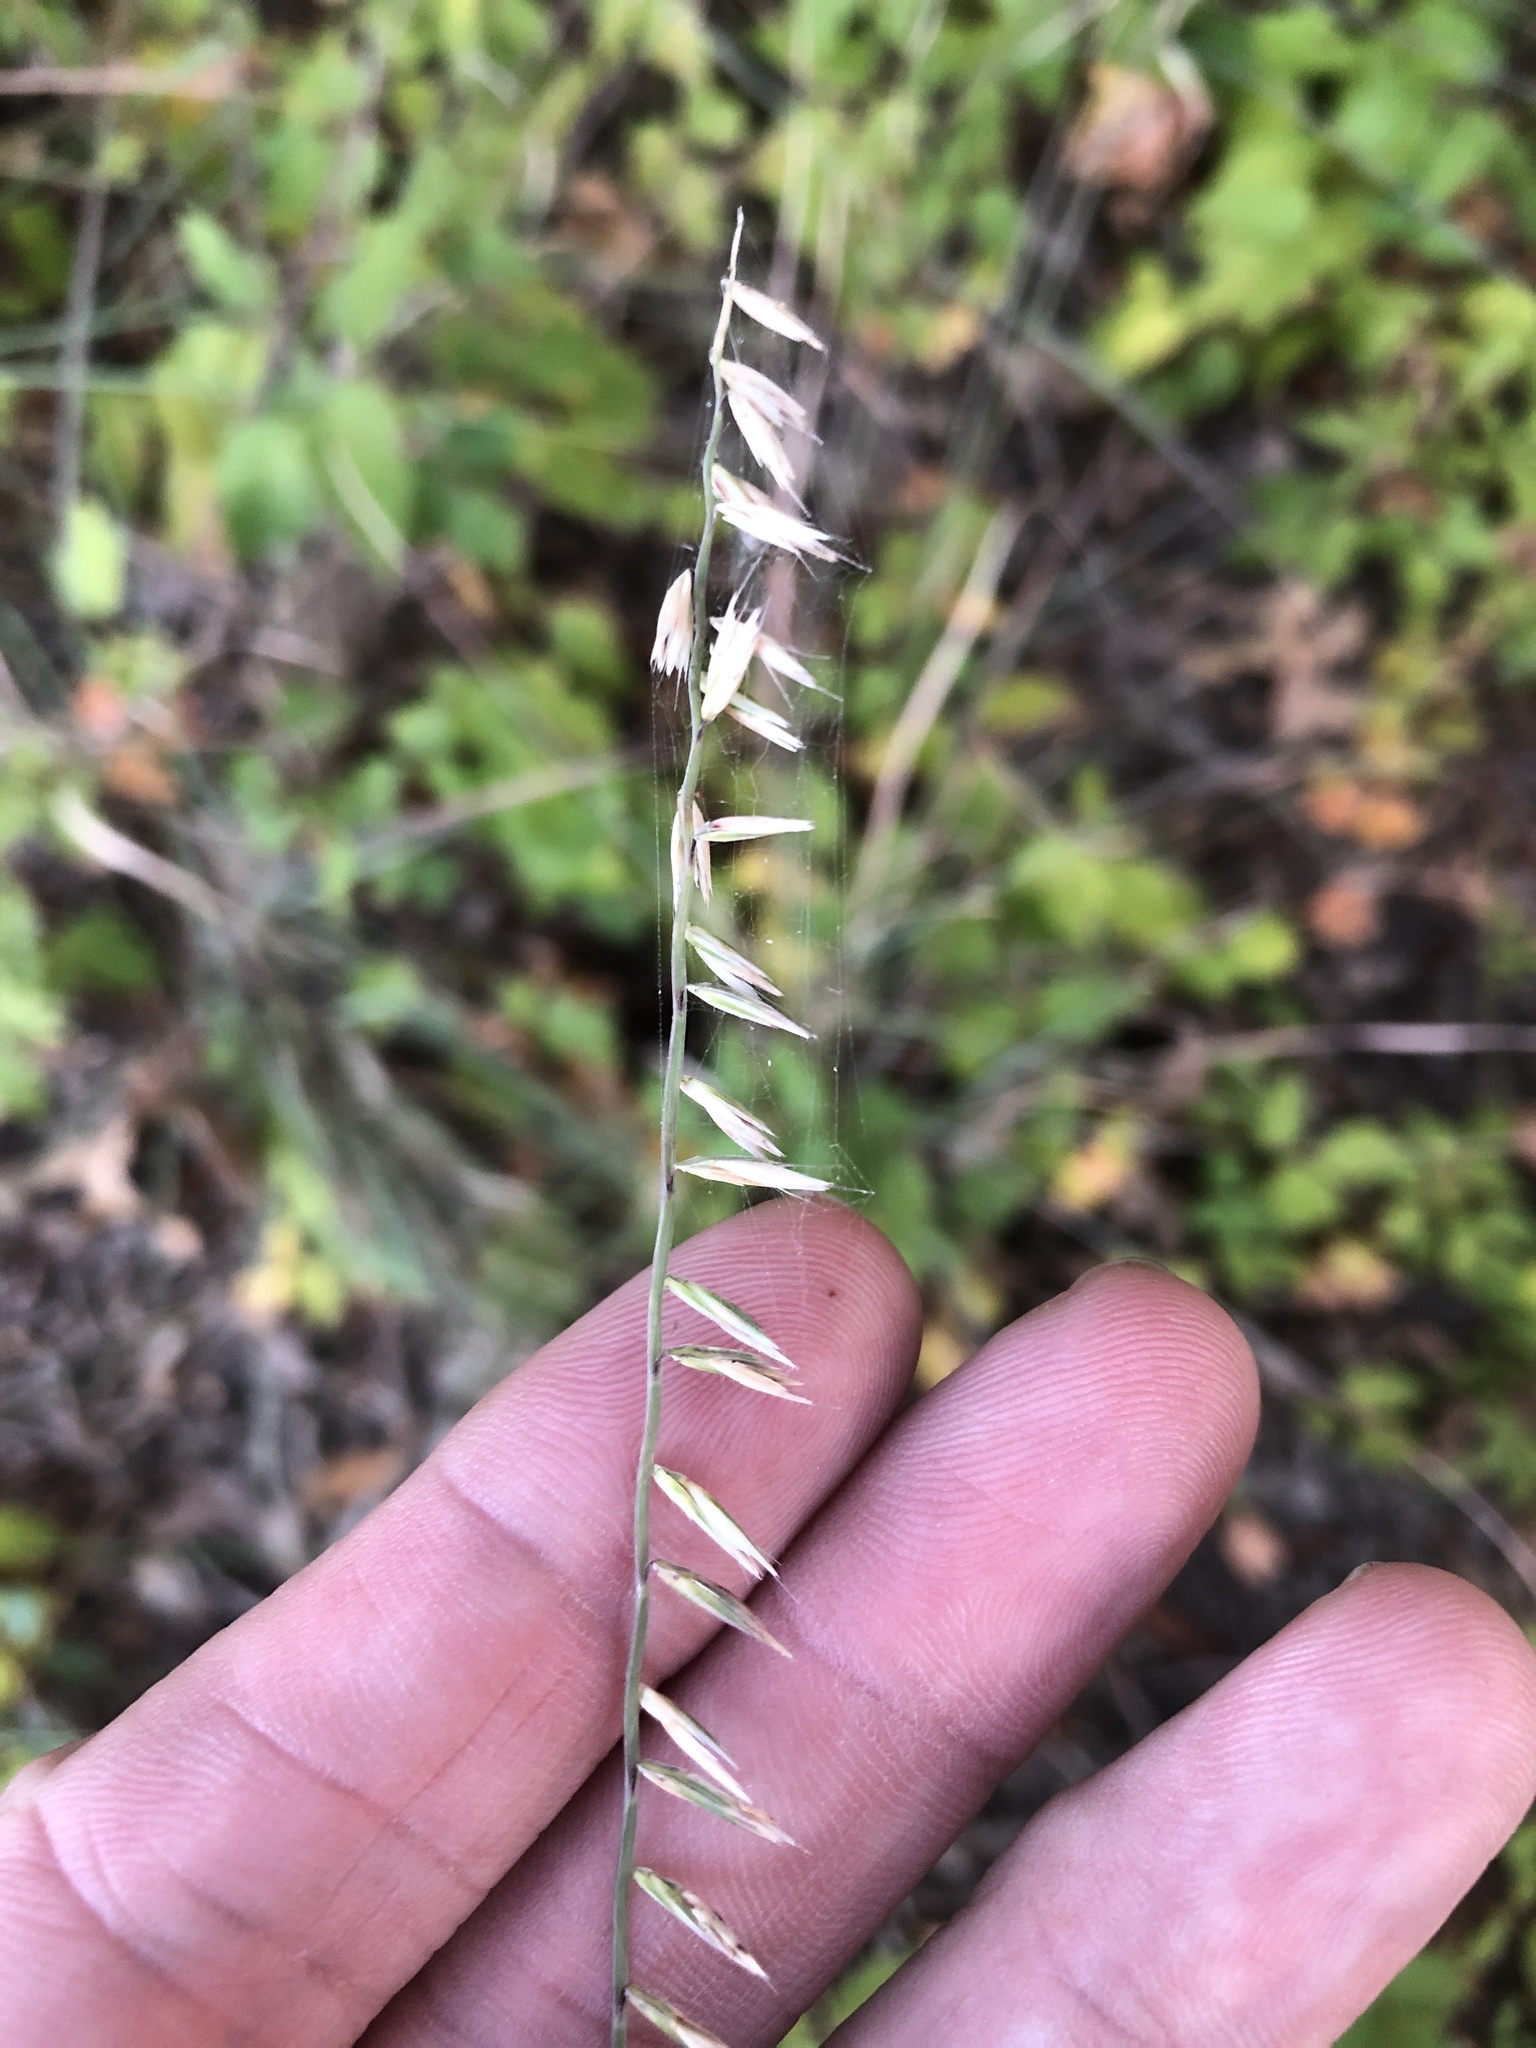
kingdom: Plantae
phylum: Tracheophyta
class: Liliopsida
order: Poales
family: Poaceae
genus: Bouteloua
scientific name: Bouteloua curtipendula
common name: Side-oats grama
